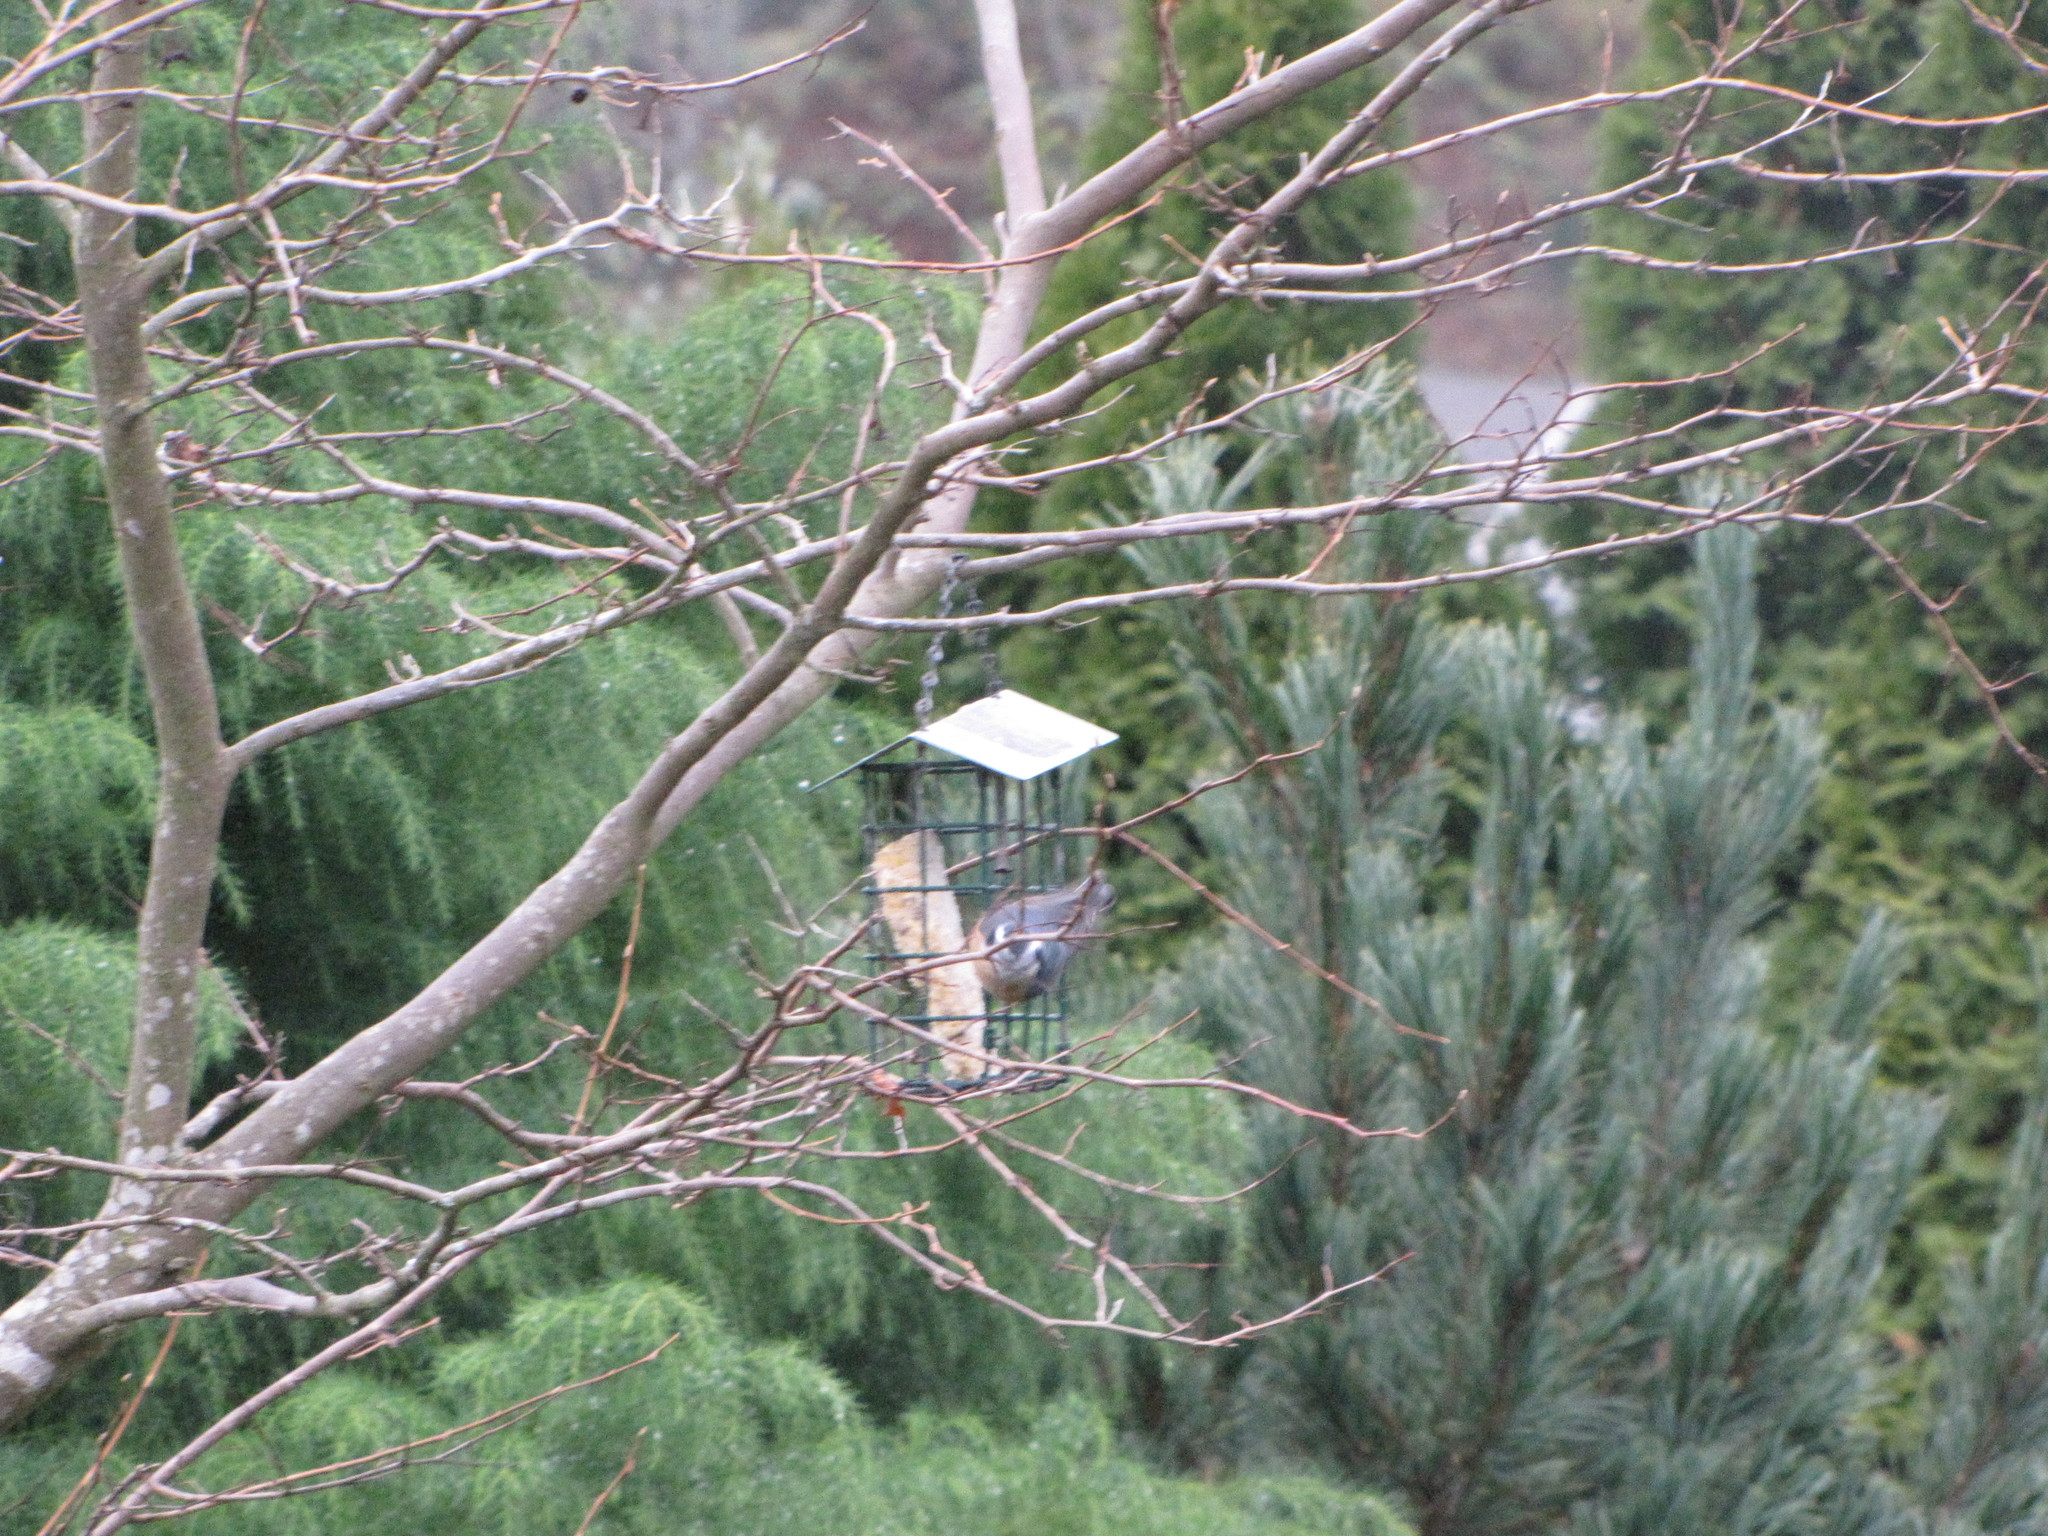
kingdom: Animalia
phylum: Chordata
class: Aves
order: Passeriformes
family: Sittidae
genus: Sitta
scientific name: Sitta canadensis
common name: Red-breasted nuthatch
